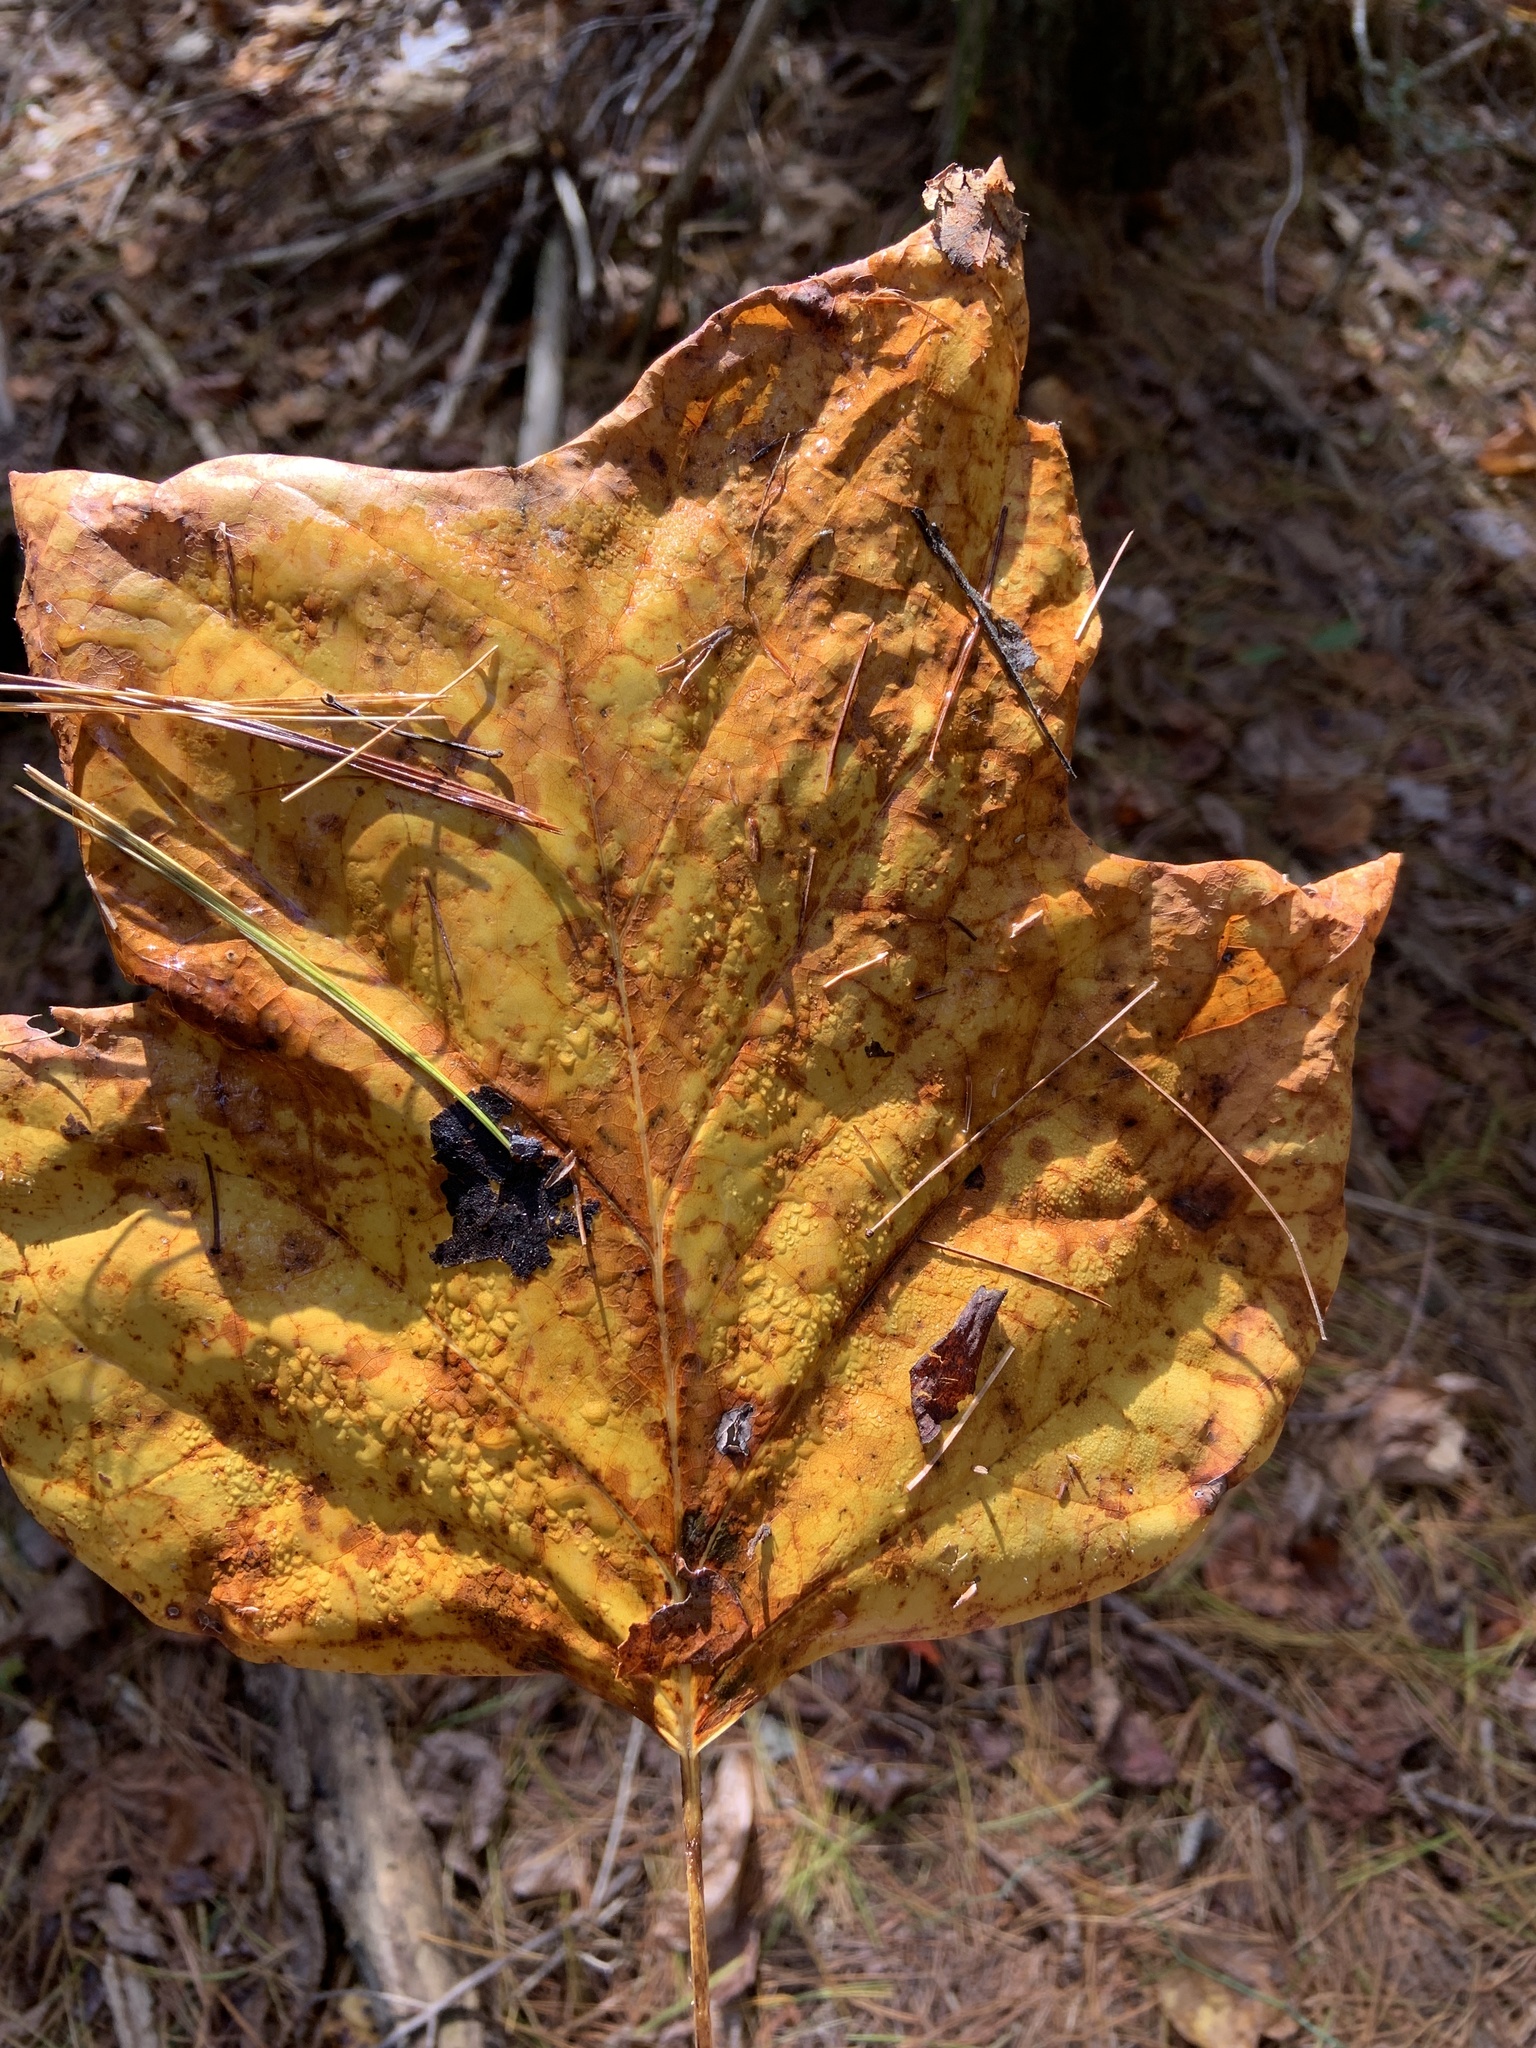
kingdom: Plantae
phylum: Tracheophyta
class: Magnoliopsida
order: Magnoliales
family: Magnoliaceae
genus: Liriodendron
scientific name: Liriodendron tulipifera
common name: Tulip tree
